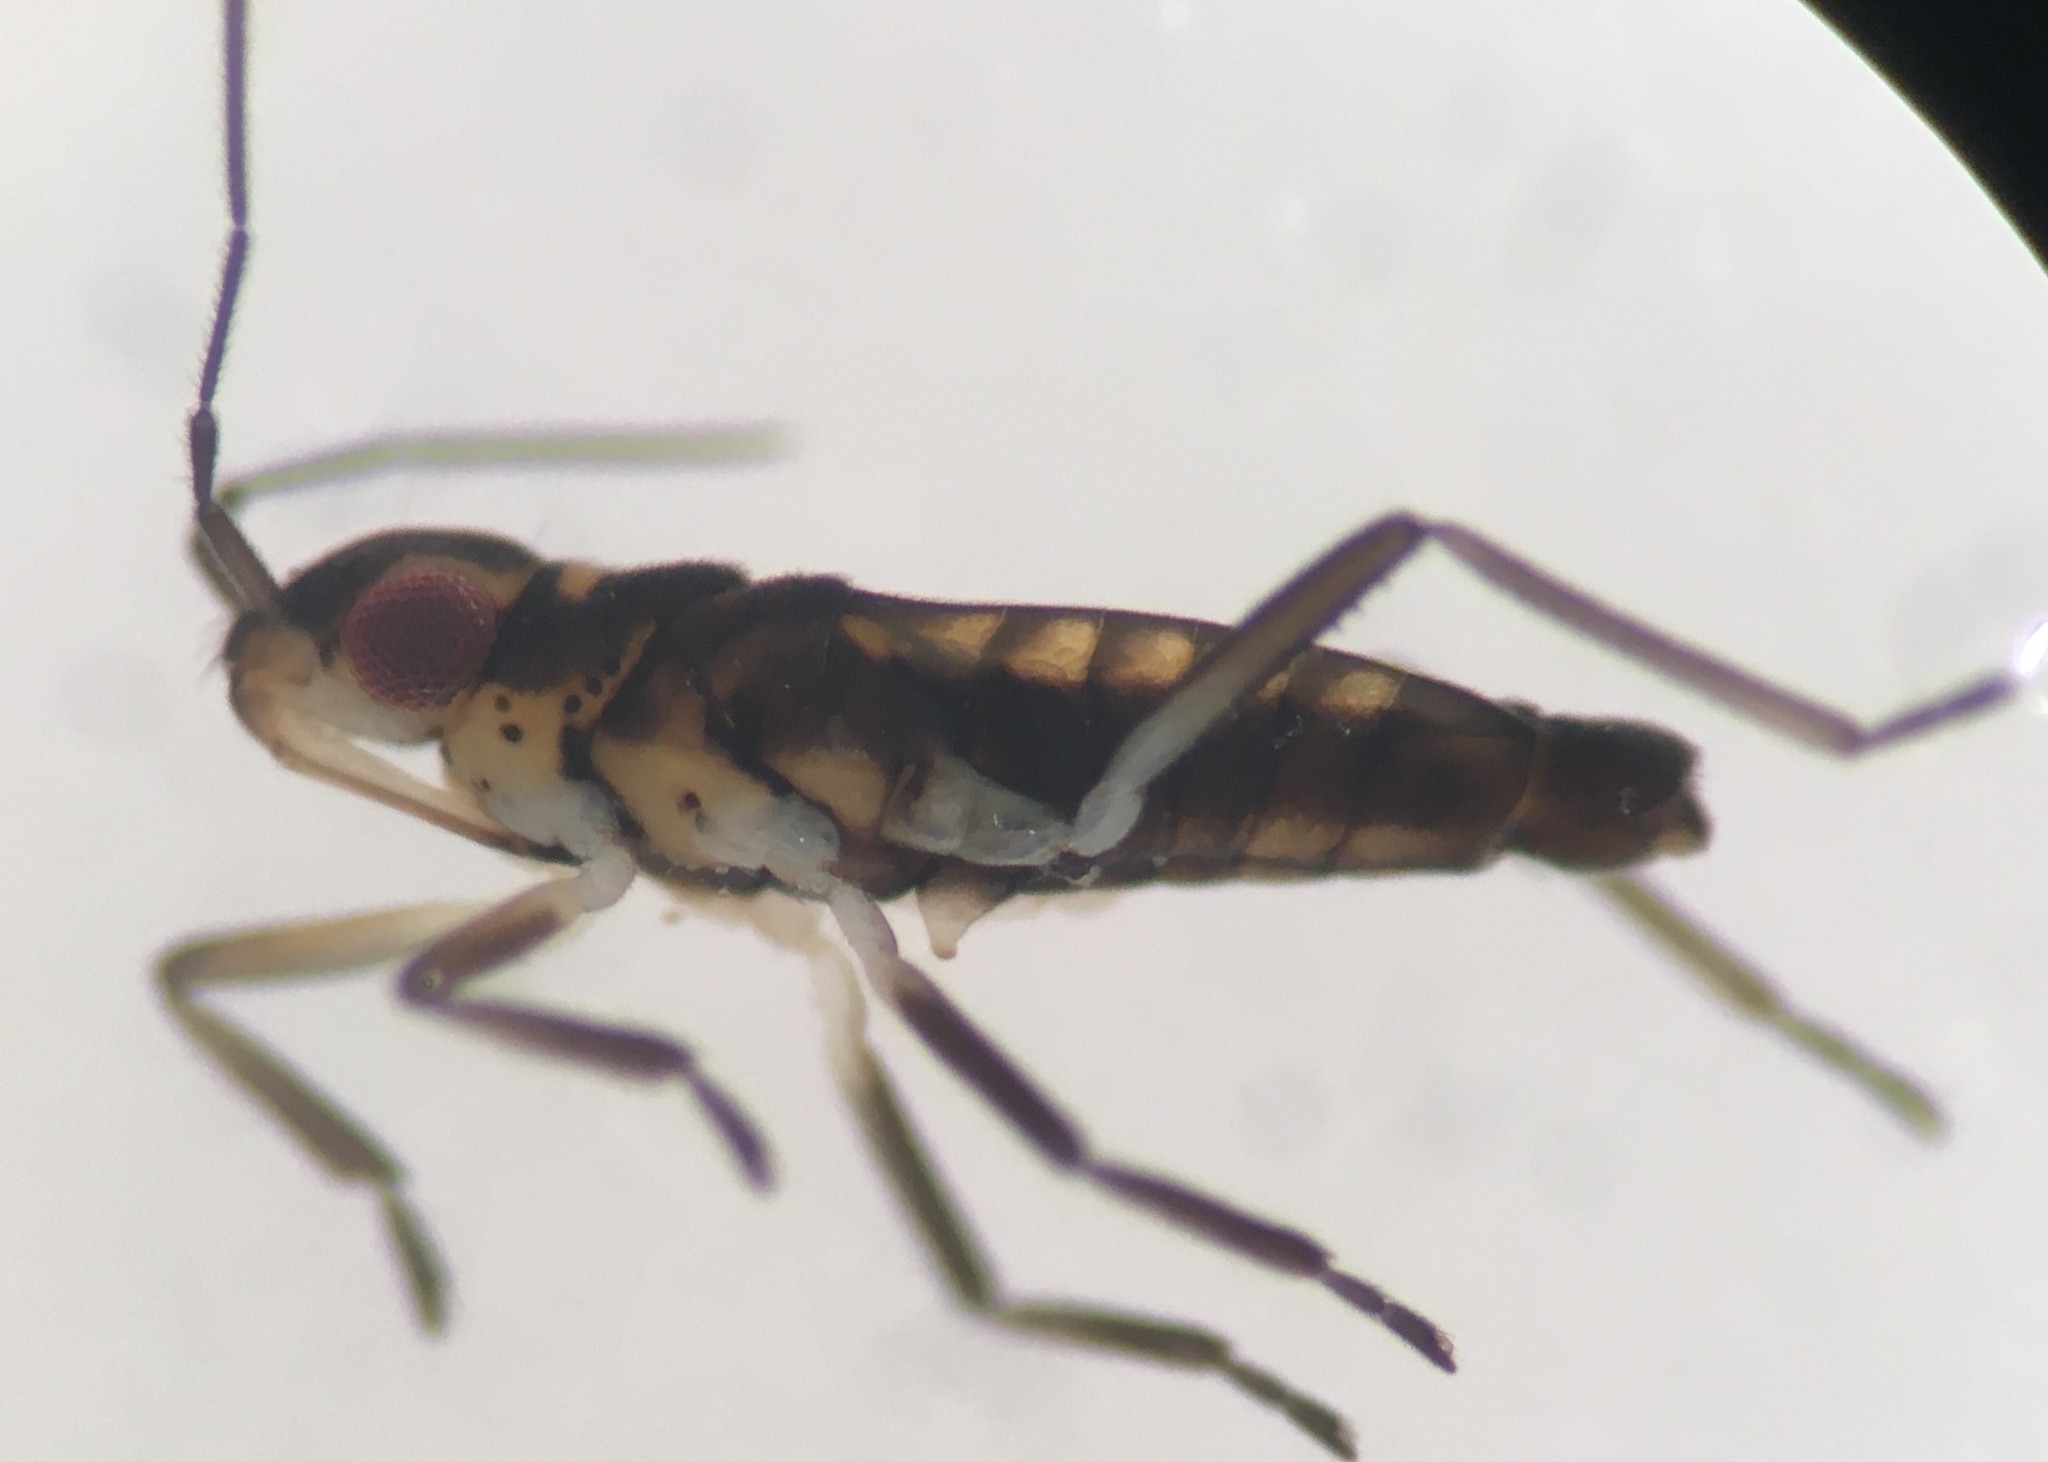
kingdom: Animalia
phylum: Arthropoda
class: Insecta
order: Hemiptera
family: Veliidae
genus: Microvelia
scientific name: Microvelia albonotata
